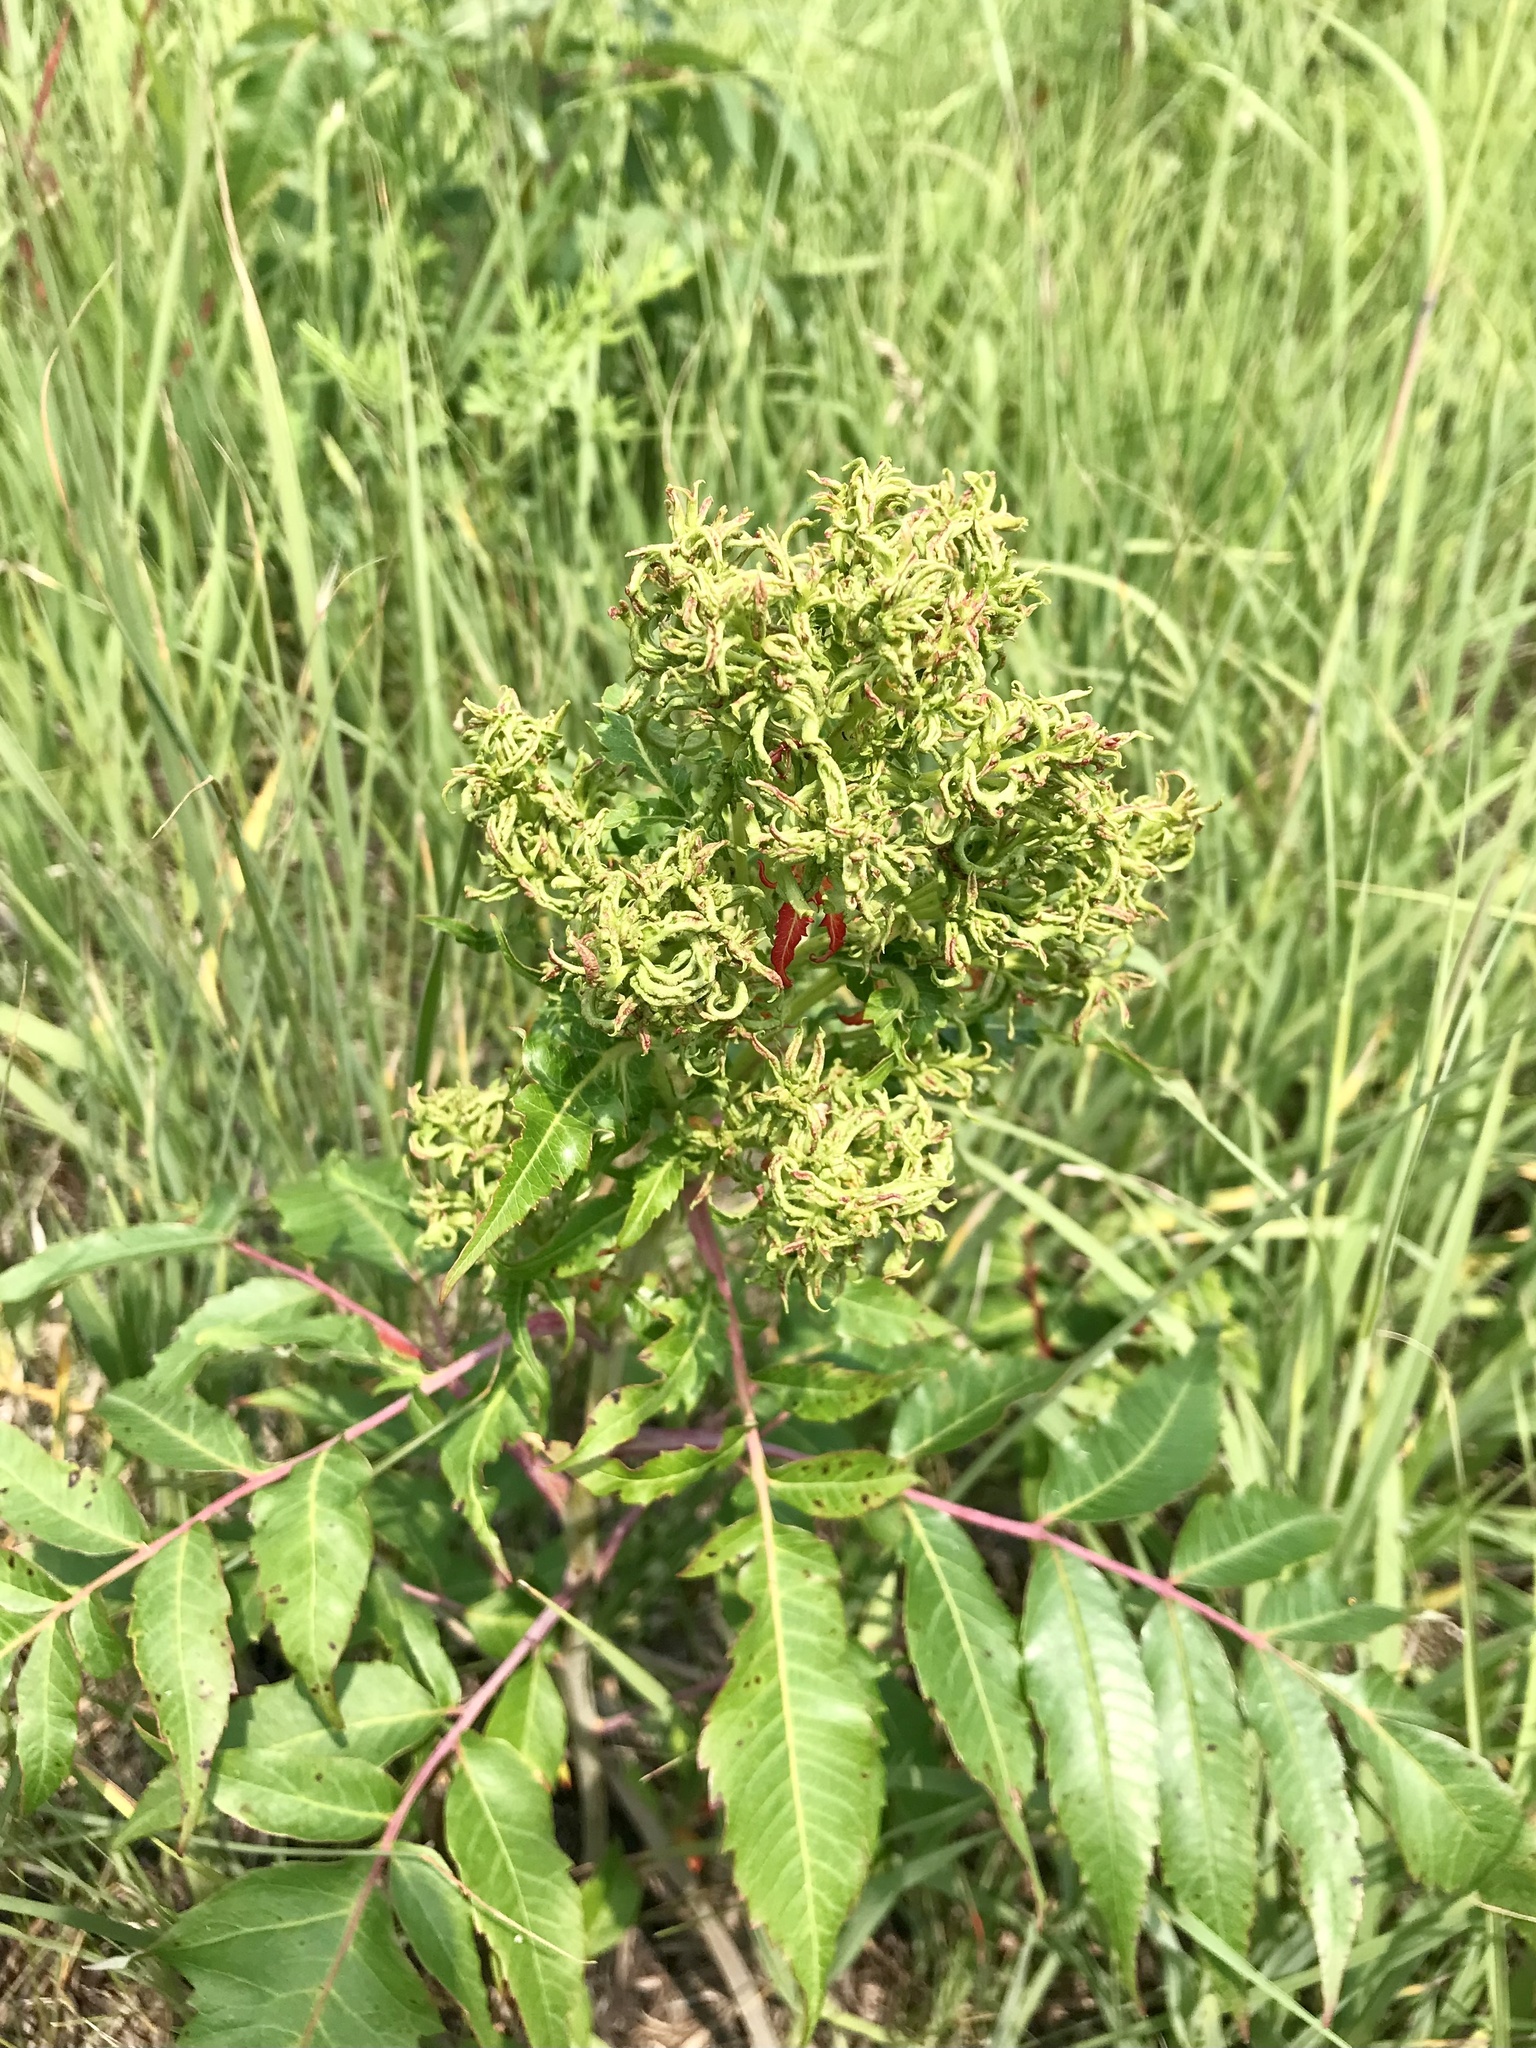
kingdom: Animalia
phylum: Arthropoda
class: Arachnida
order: Trombidiformes
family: Eriophyidae
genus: Eriophyes
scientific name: Eriophyes
